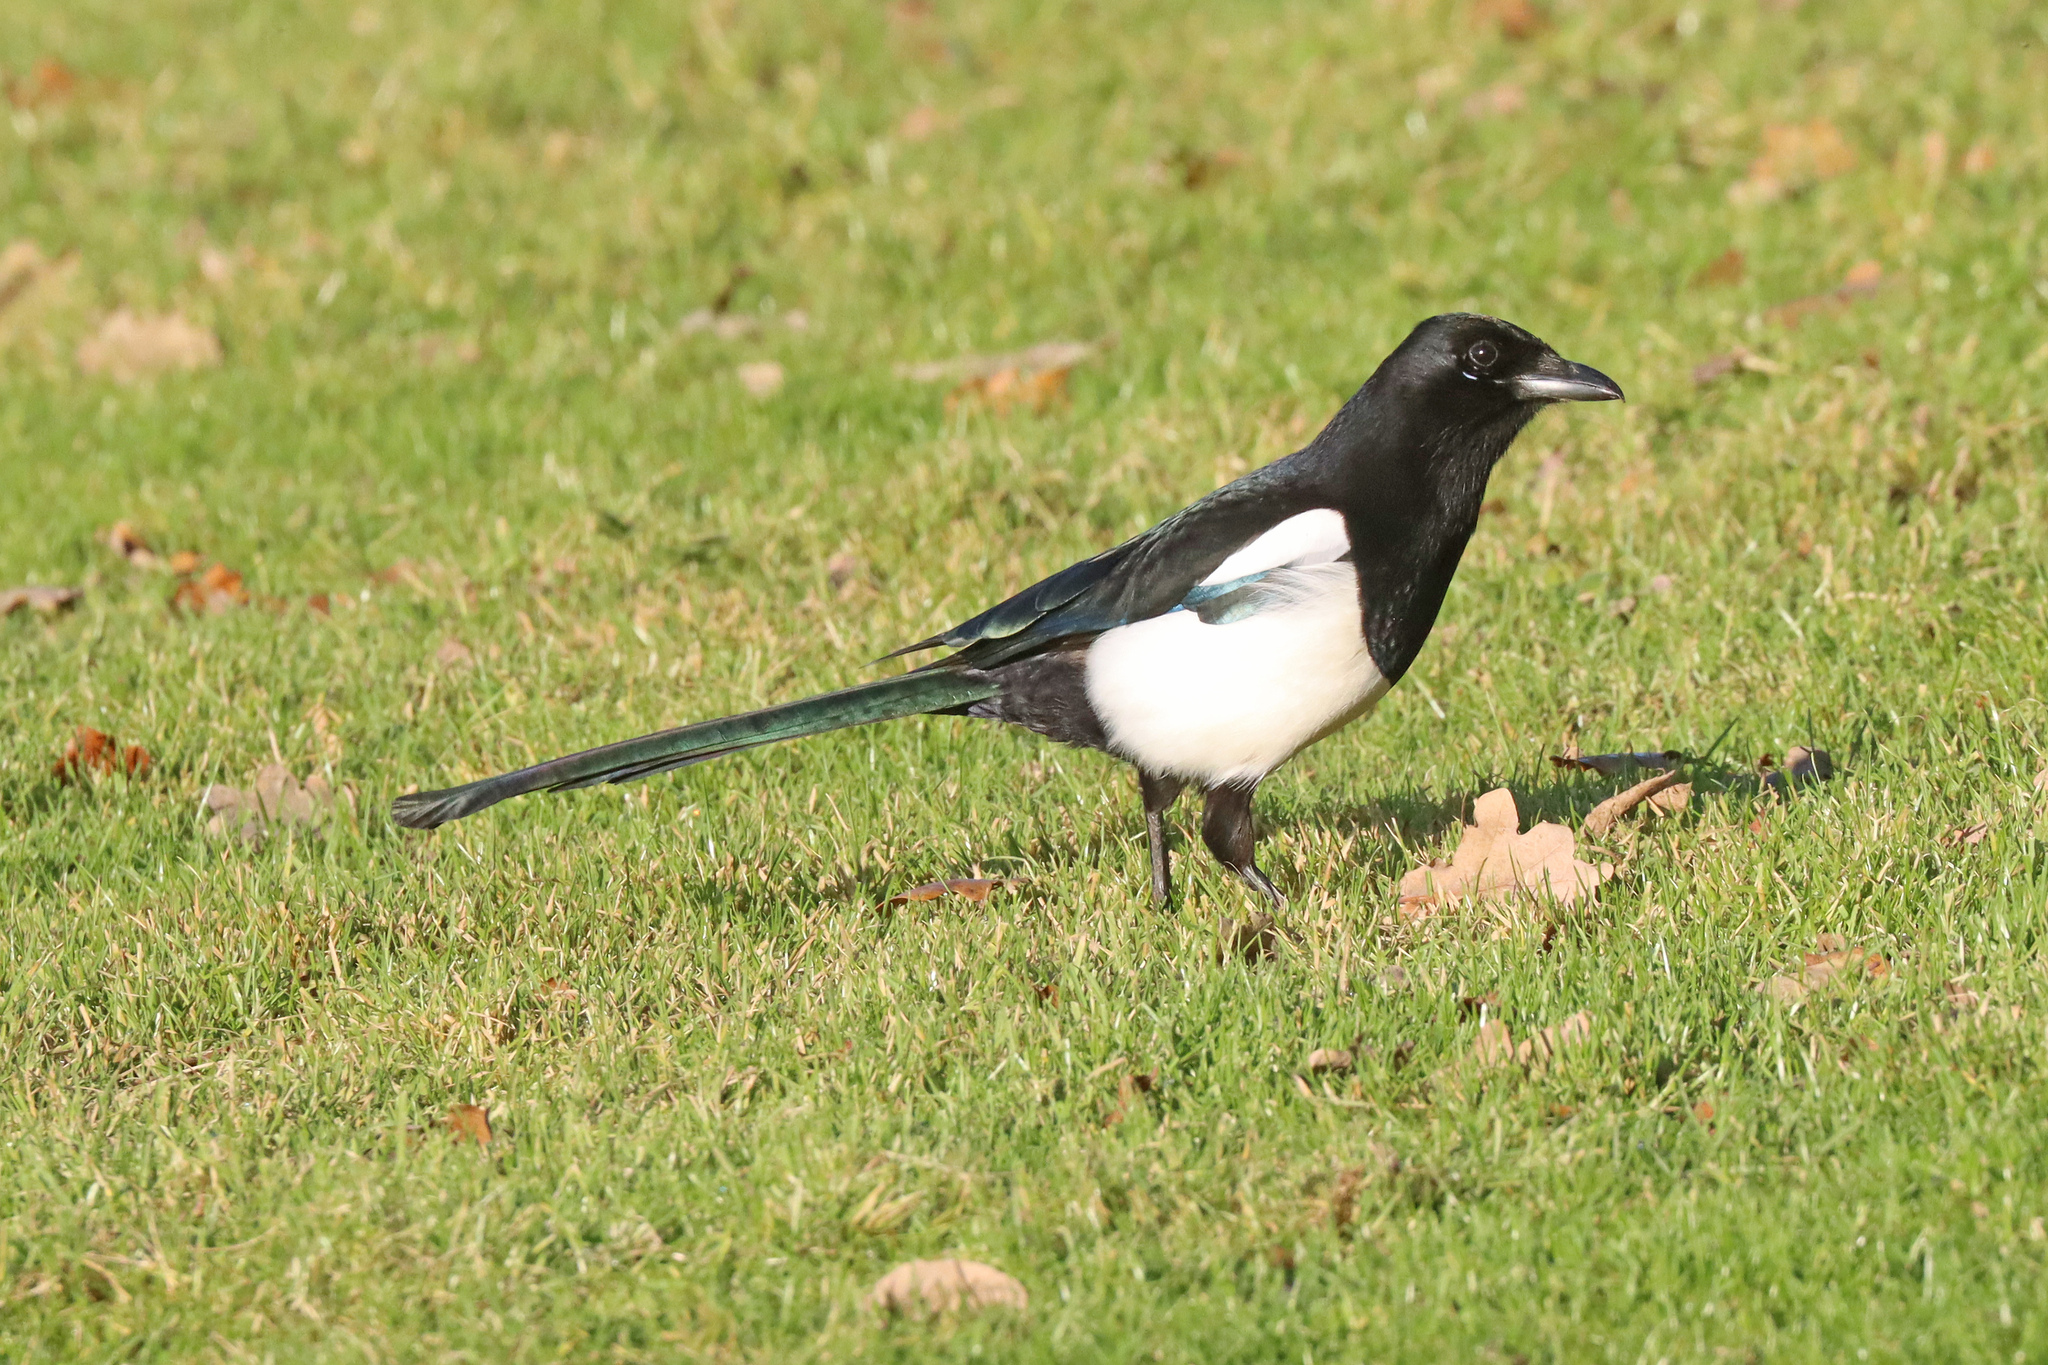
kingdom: Animalia
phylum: Chordata
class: Aves
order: Passeriformes
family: Corvidae
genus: Pica
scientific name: Pica pica
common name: Eurasian magpie
